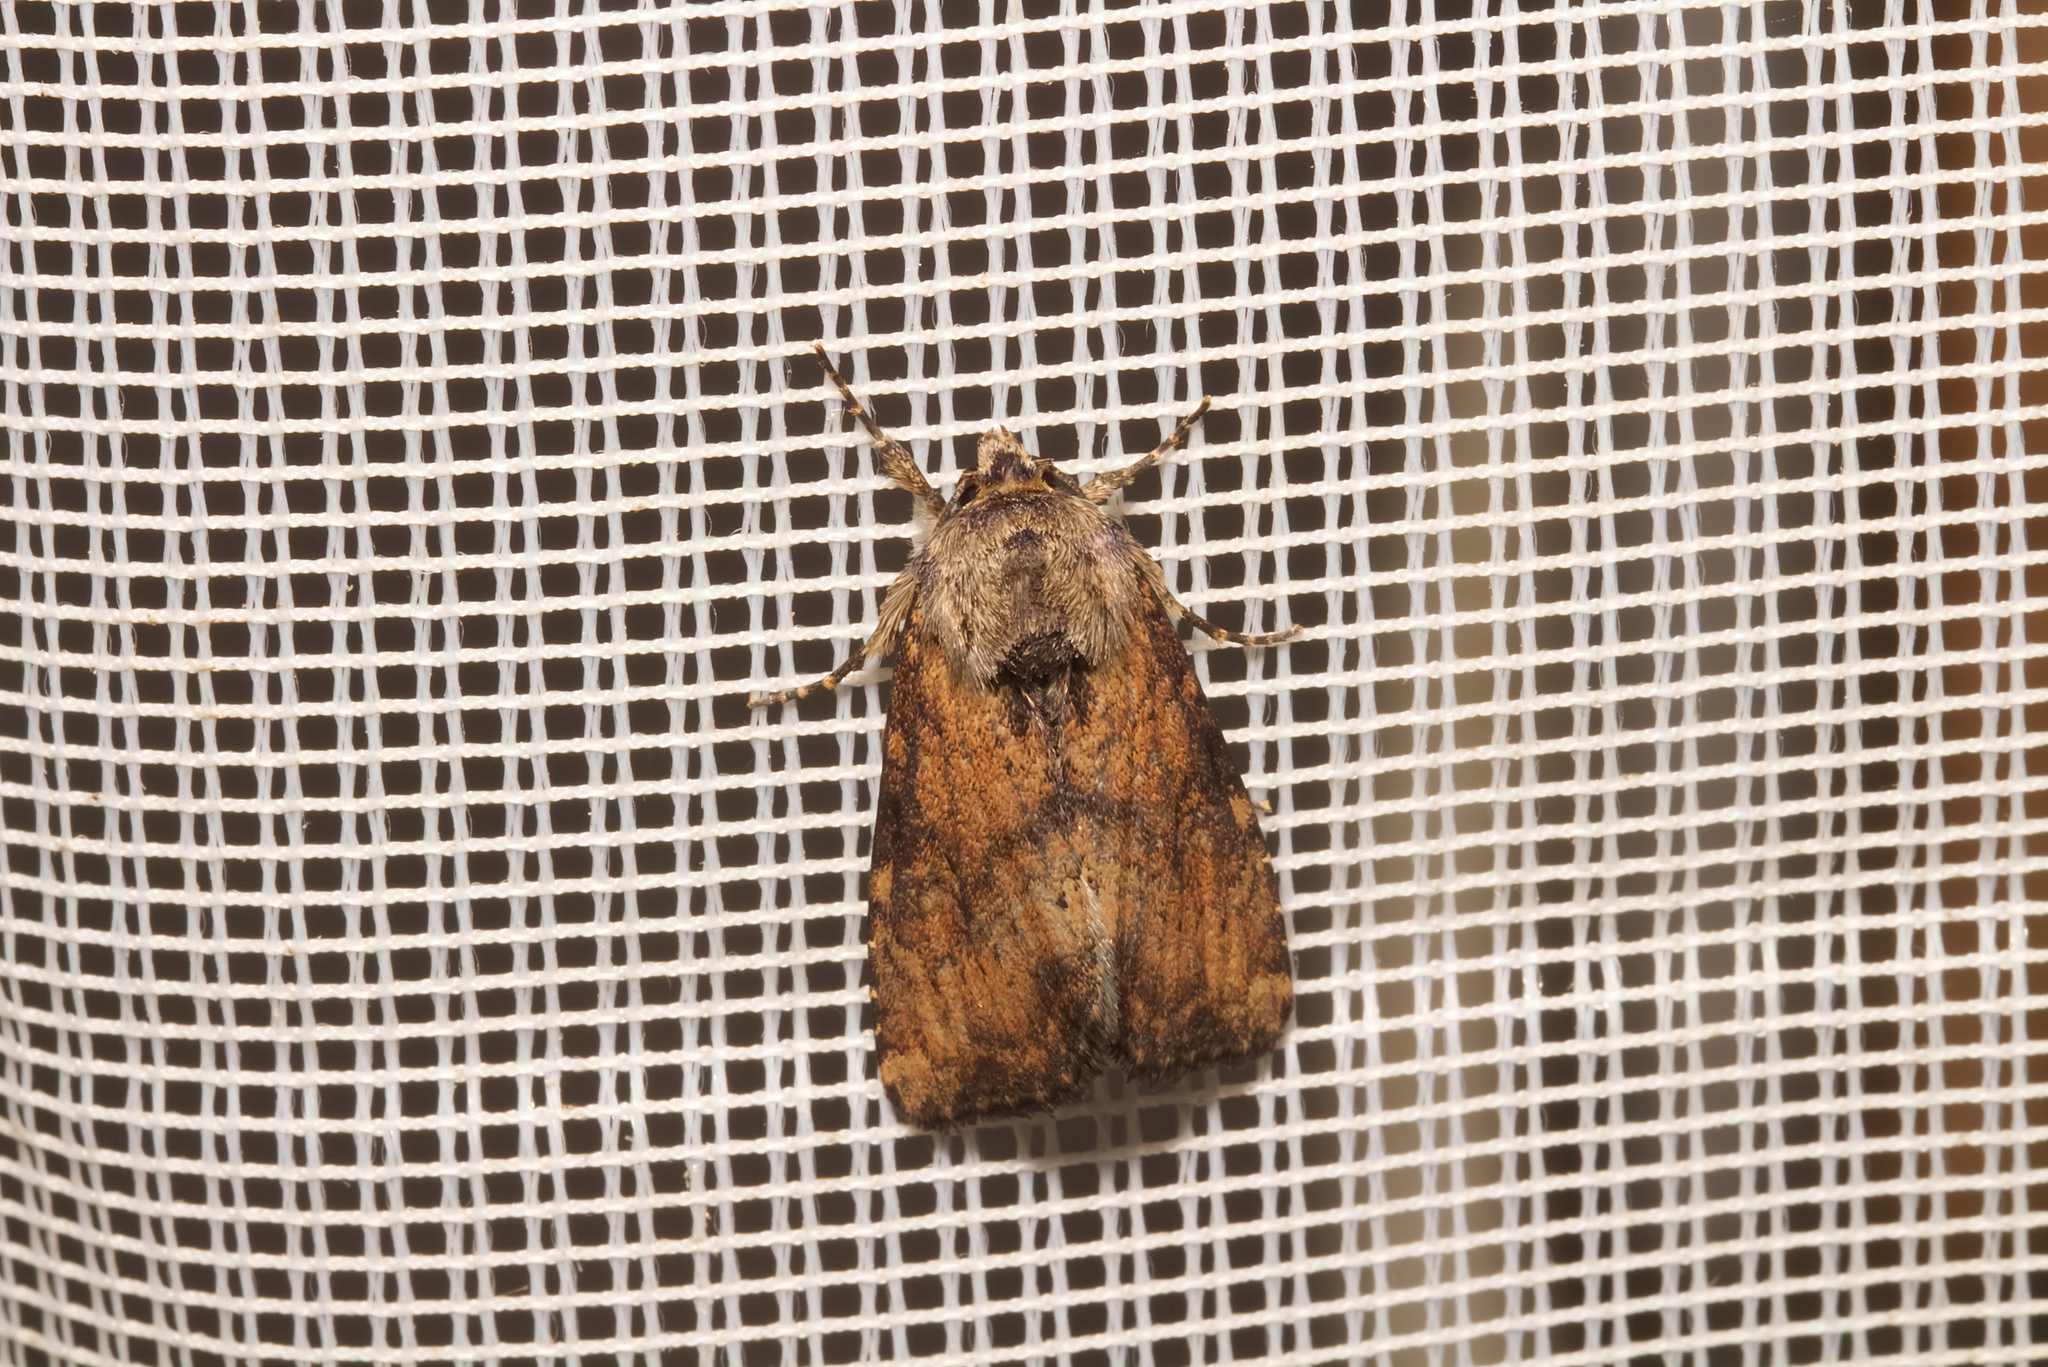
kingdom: Animalia
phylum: Arthropoda
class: Insecta
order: Lepidoptera
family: Noctuidae
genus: Loscopia
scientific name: Loscopia scolopacina
